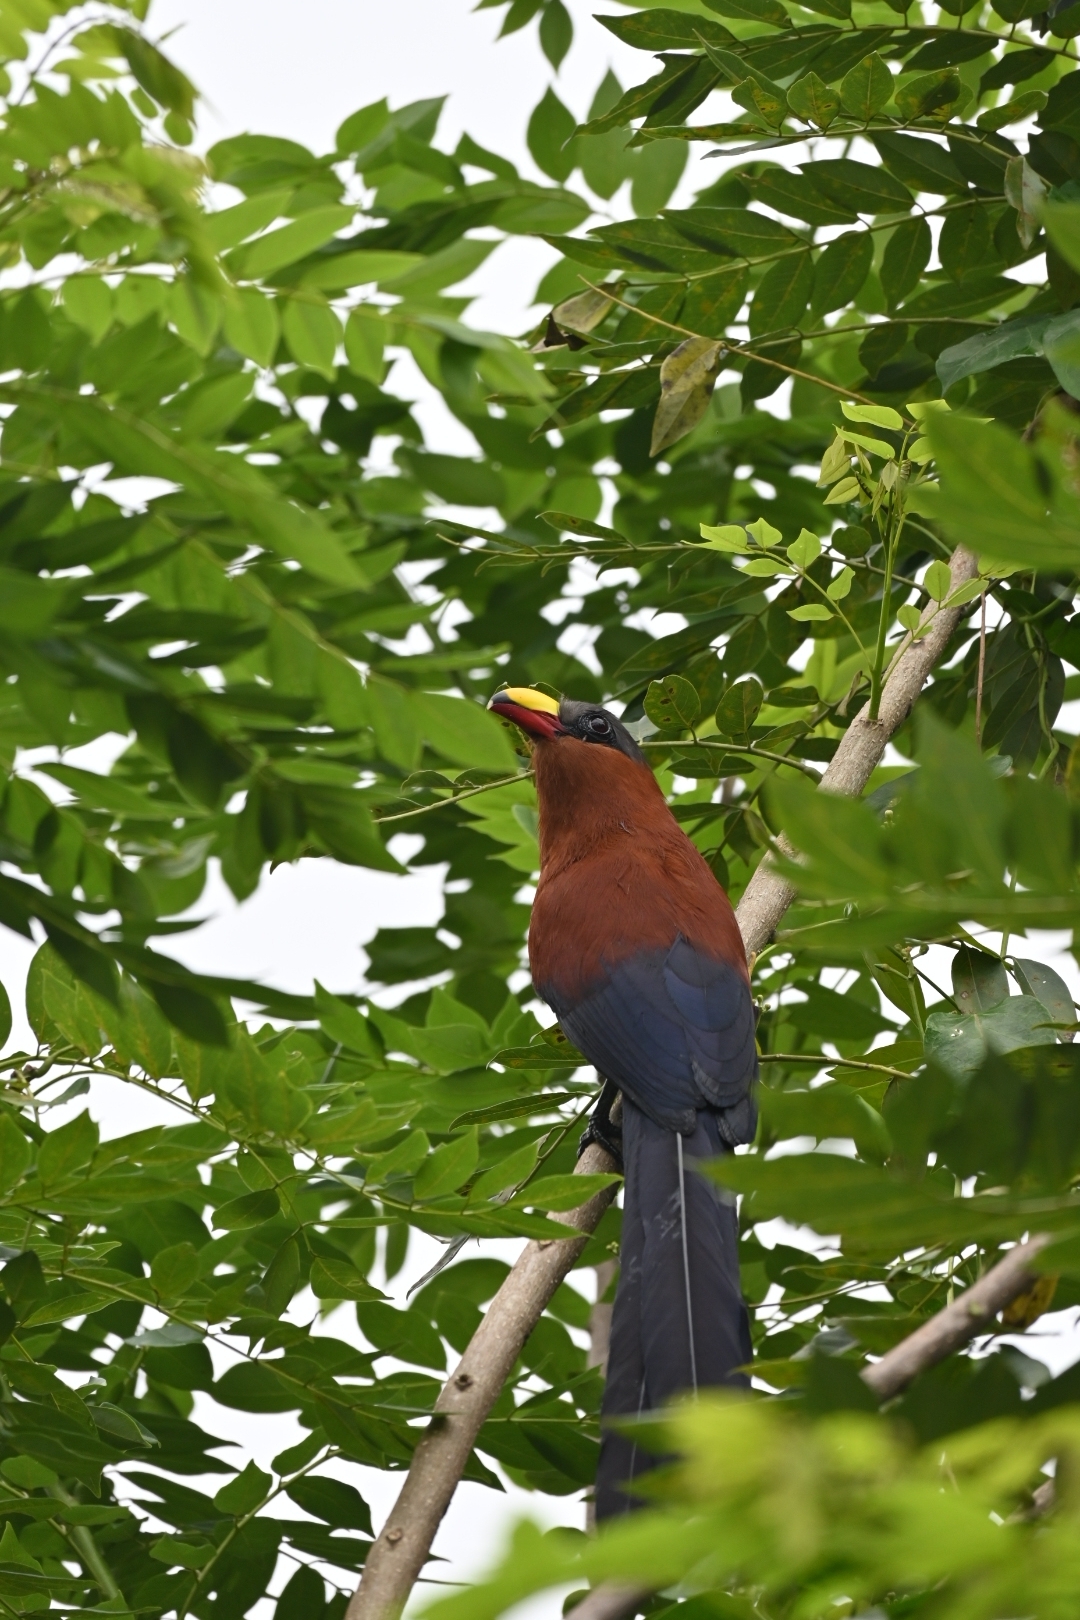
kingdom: Animalia
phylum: Chordata
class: Aves
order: Cuculiformes
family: Cuculidae
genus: Zanclostomus
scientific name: Zanclostomus calyorhynchus
